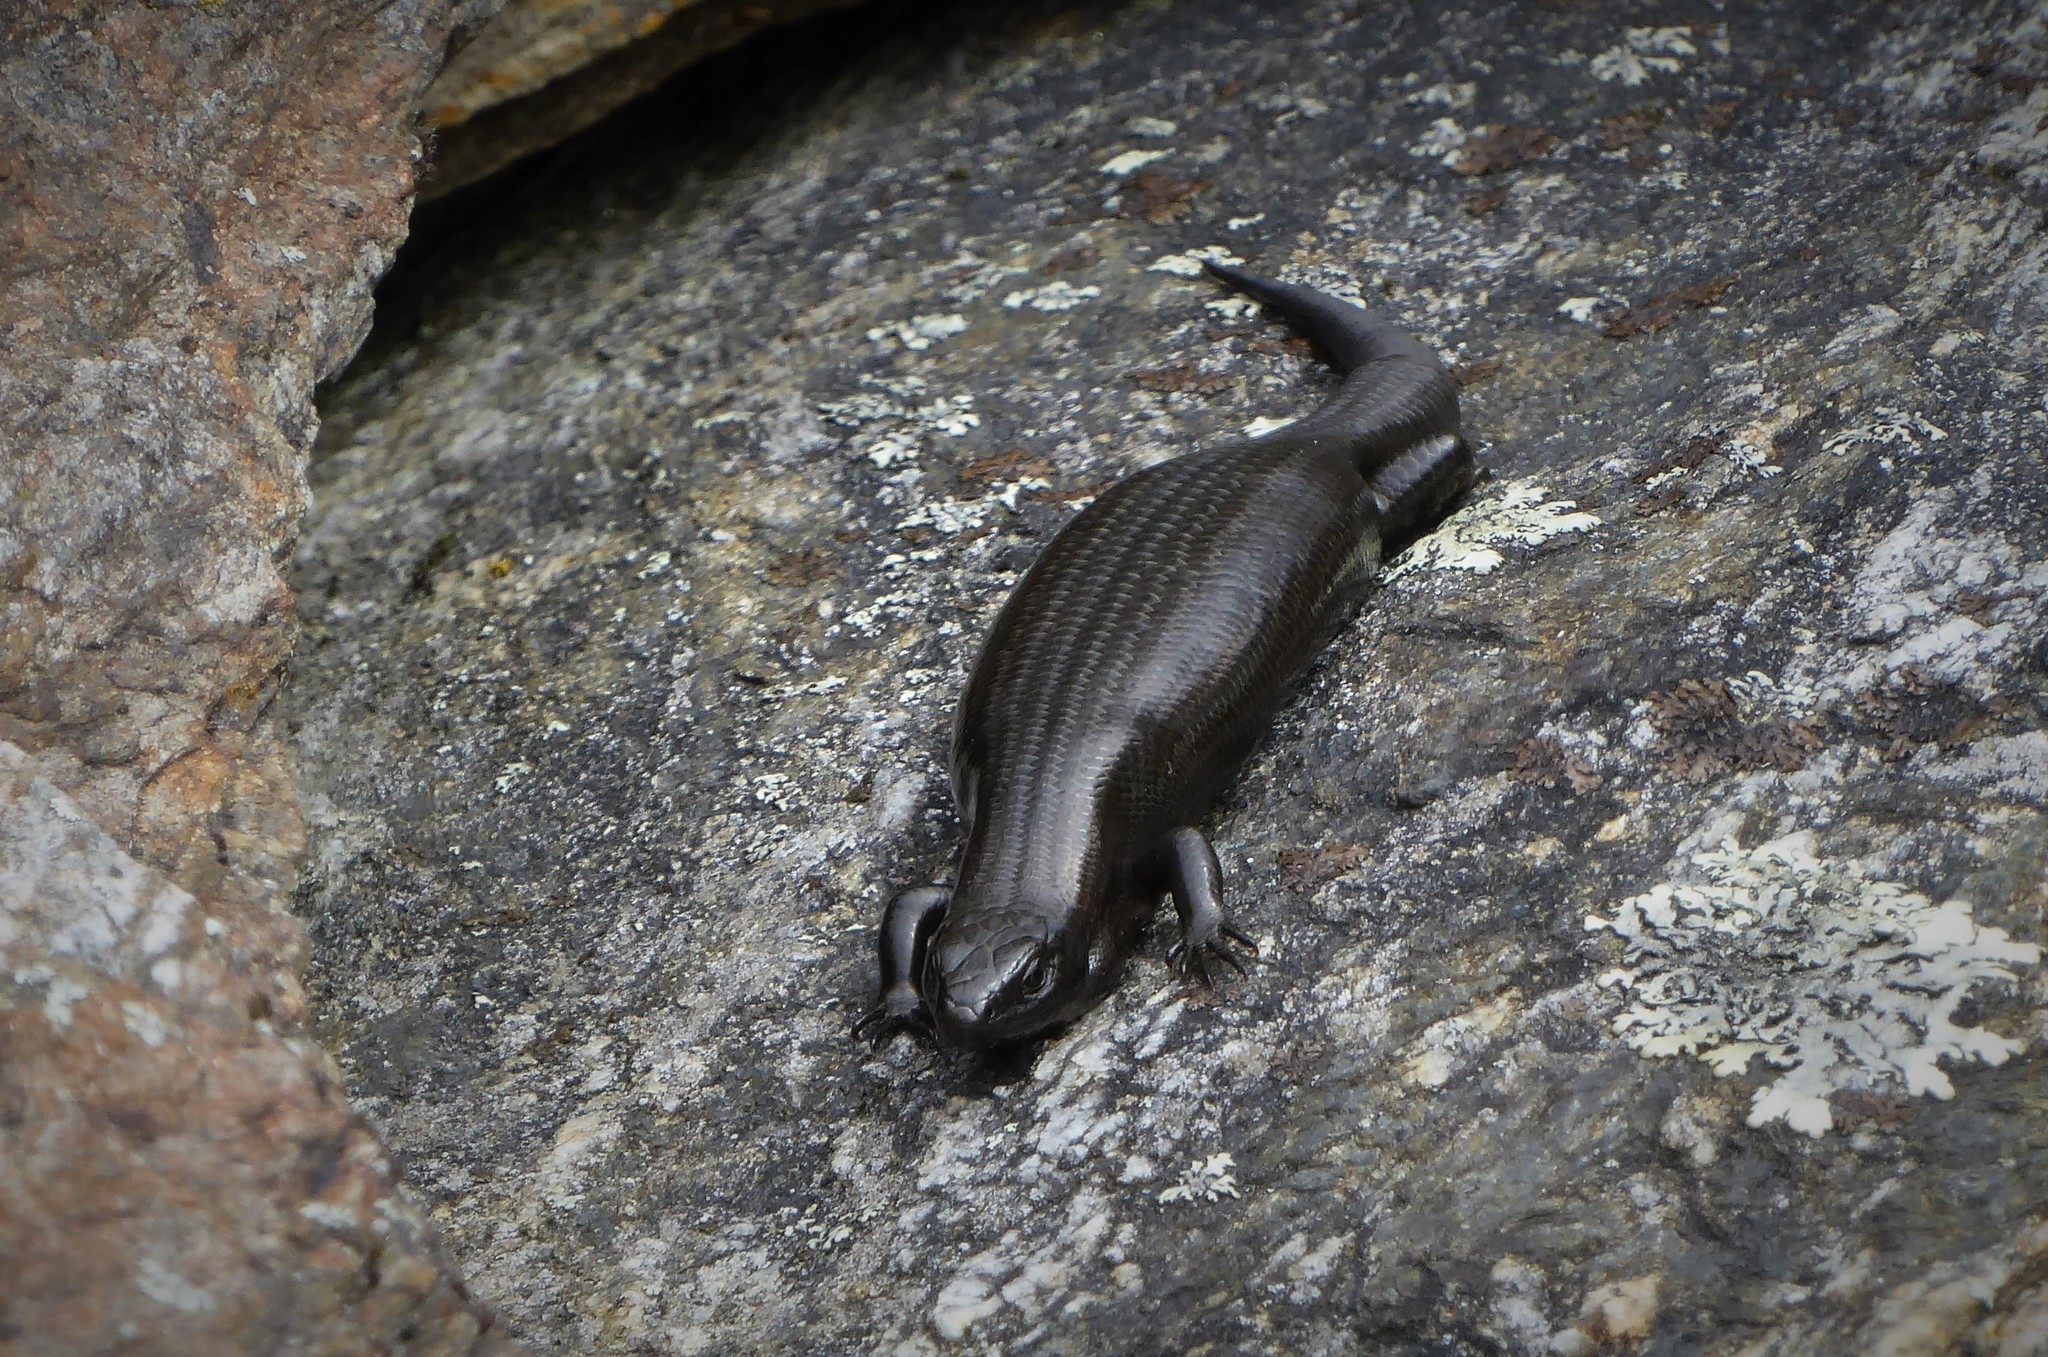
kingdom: Animalia
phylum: Chordata
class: Squamata
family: Scincidae
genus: Oligosoma
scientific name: Oligosoma polychroma
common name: Common new zealand skink
